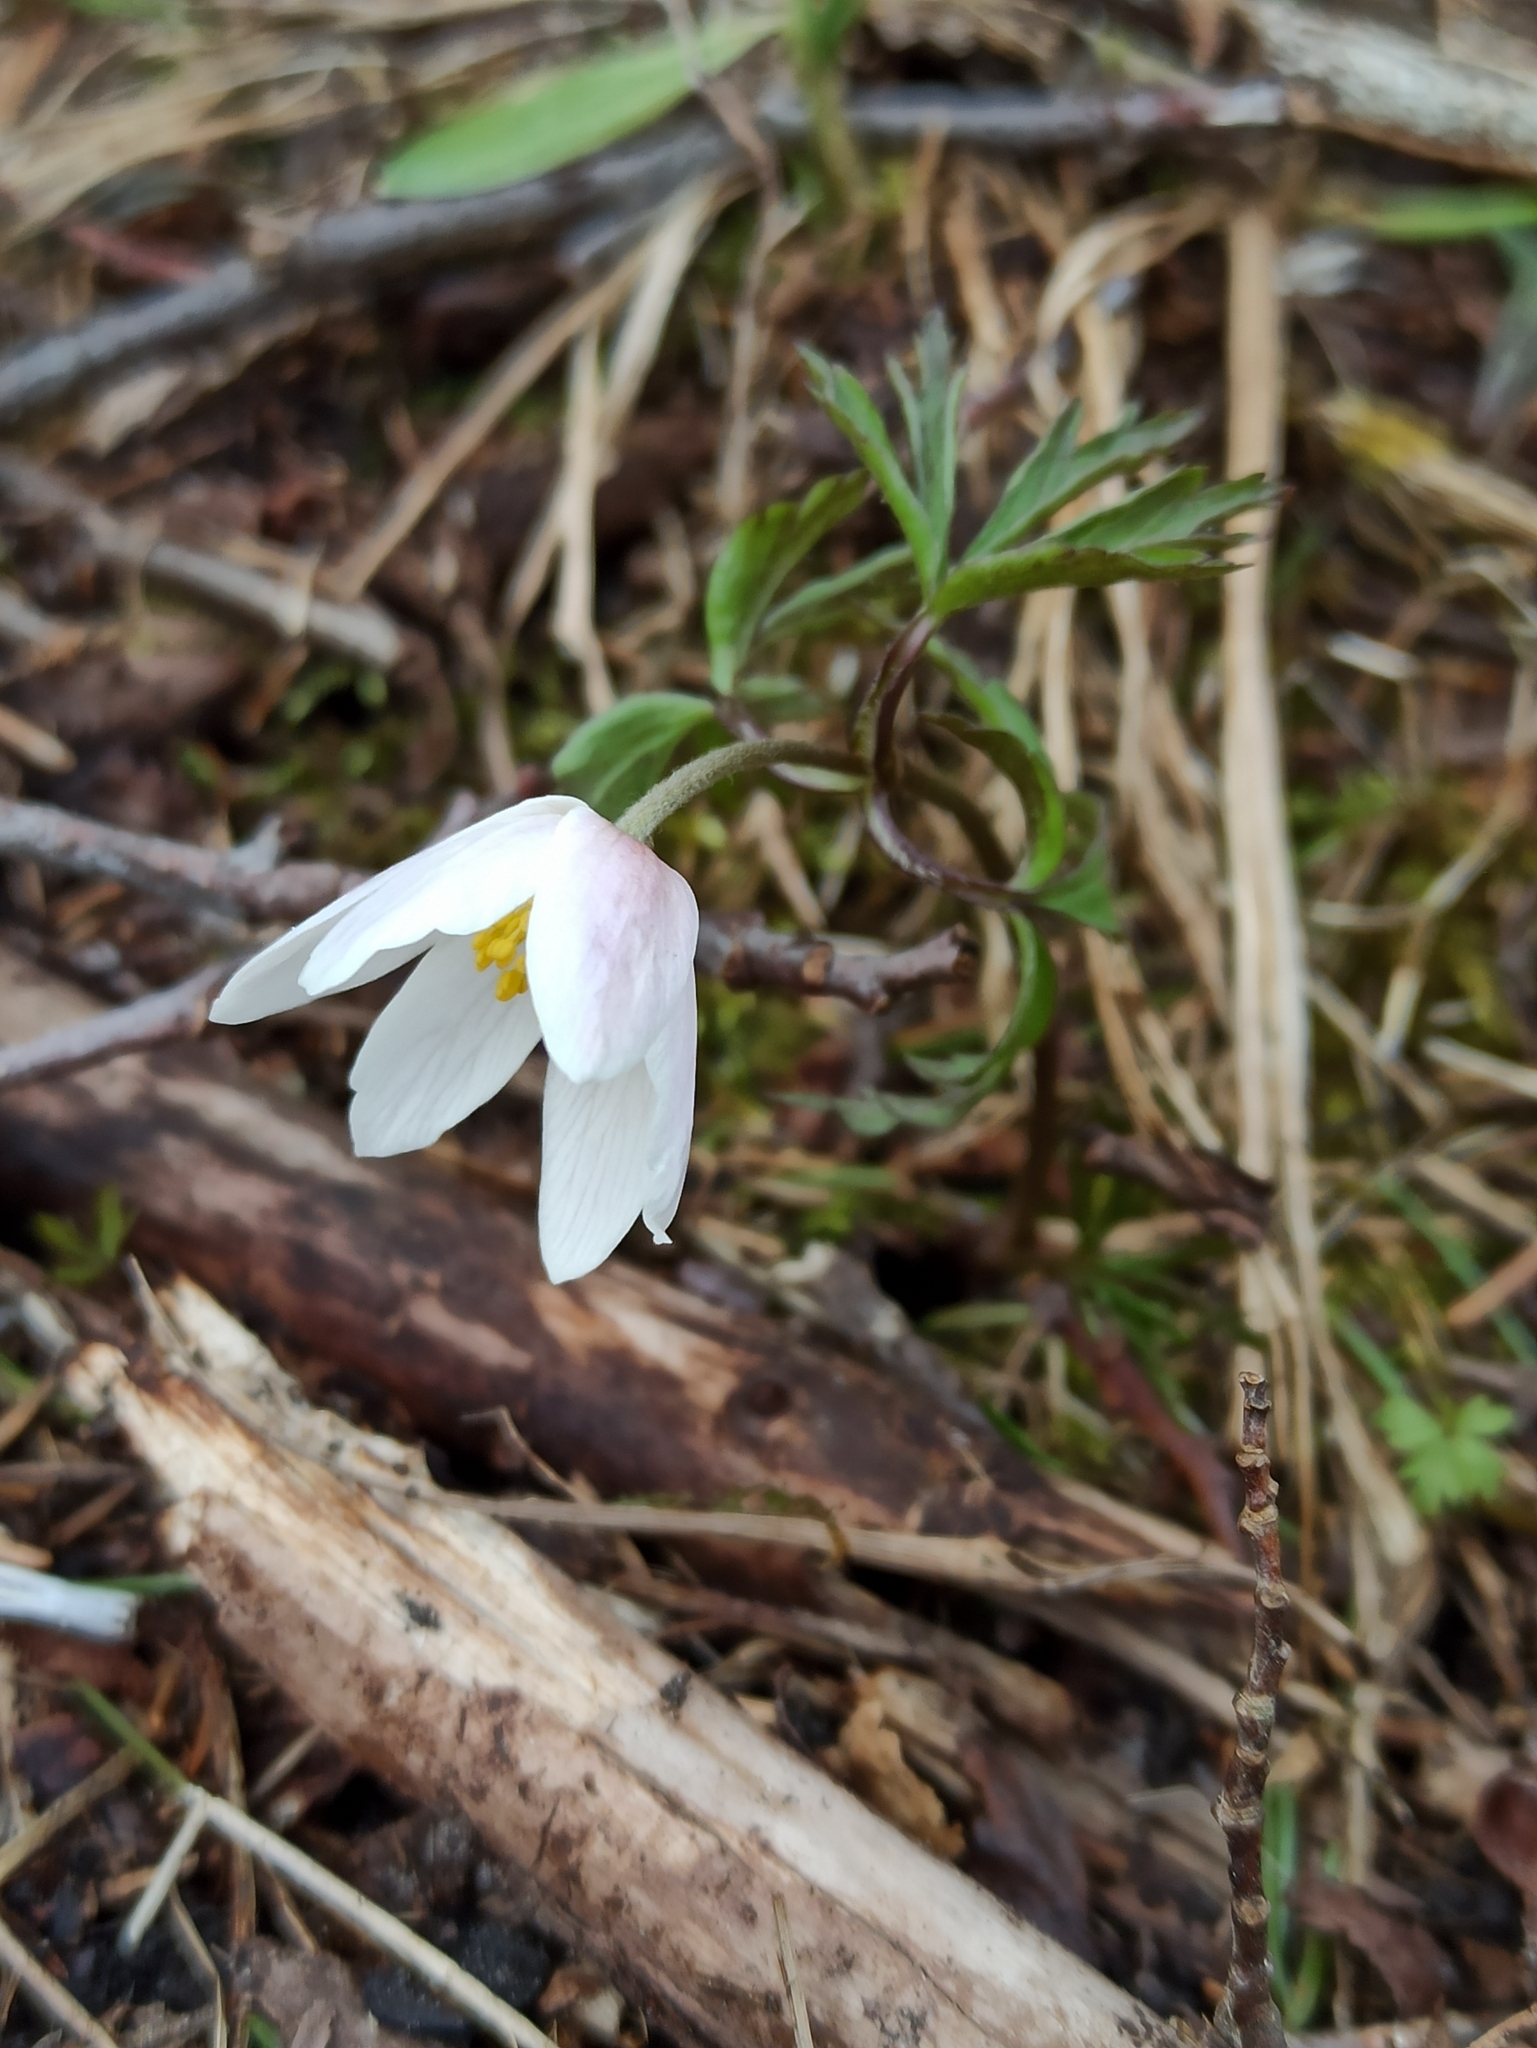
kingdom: Plantae
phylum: Tracheophyta
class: Magnoliopsida
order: Ranunculales
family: Ranunculaceae
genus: Anemone
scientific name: Anemone nemorosa
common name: Wood anemone
